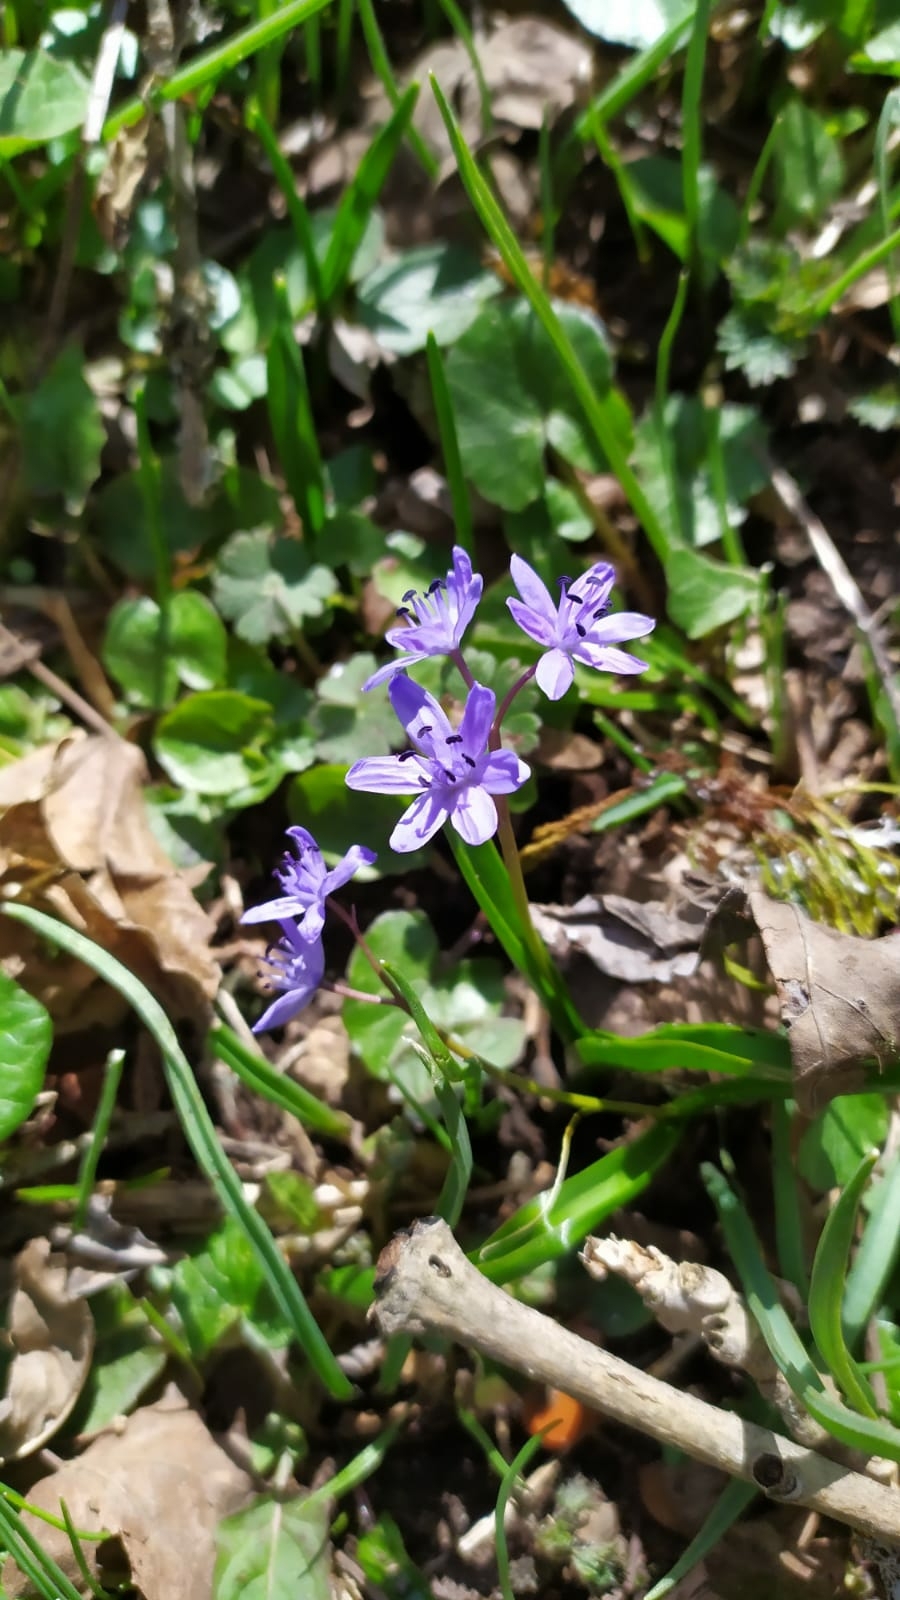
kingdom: Plantae
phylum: Tracheophyta
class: Liliopsida
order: Asparagales
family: Asparagaceae
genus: Scilla
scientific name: Scilla bifolia
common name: Alpine squill
